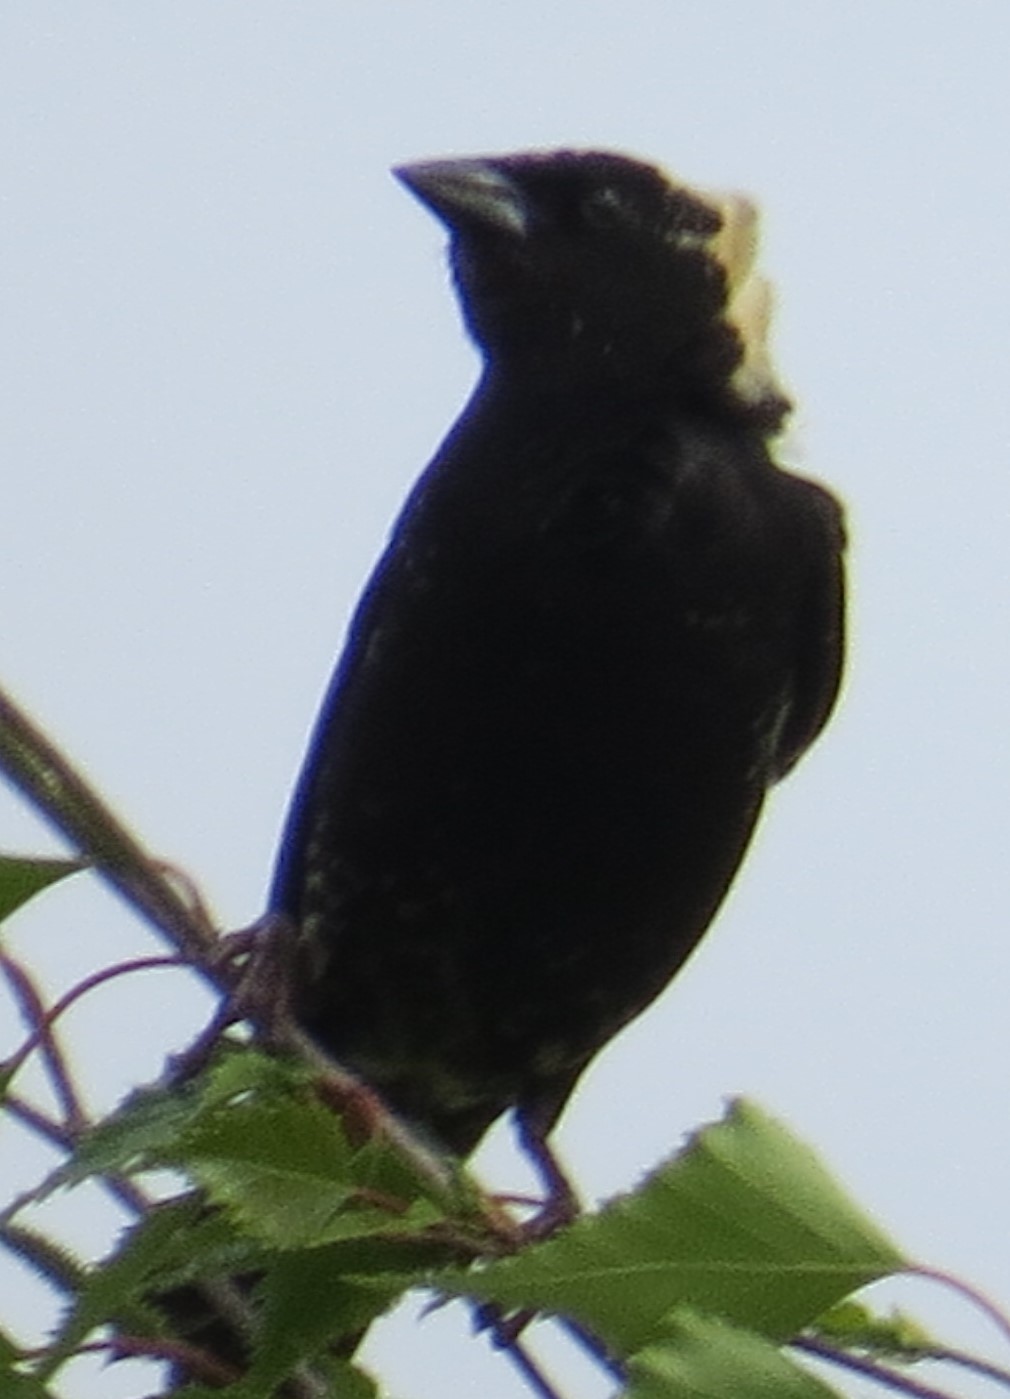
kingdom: Animalia
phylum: Chordata
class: Aves
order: Passeriformes
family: Icteridae
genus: Dolichonyx
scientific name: Dolichonyx oryzivorus
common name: Bobolink
